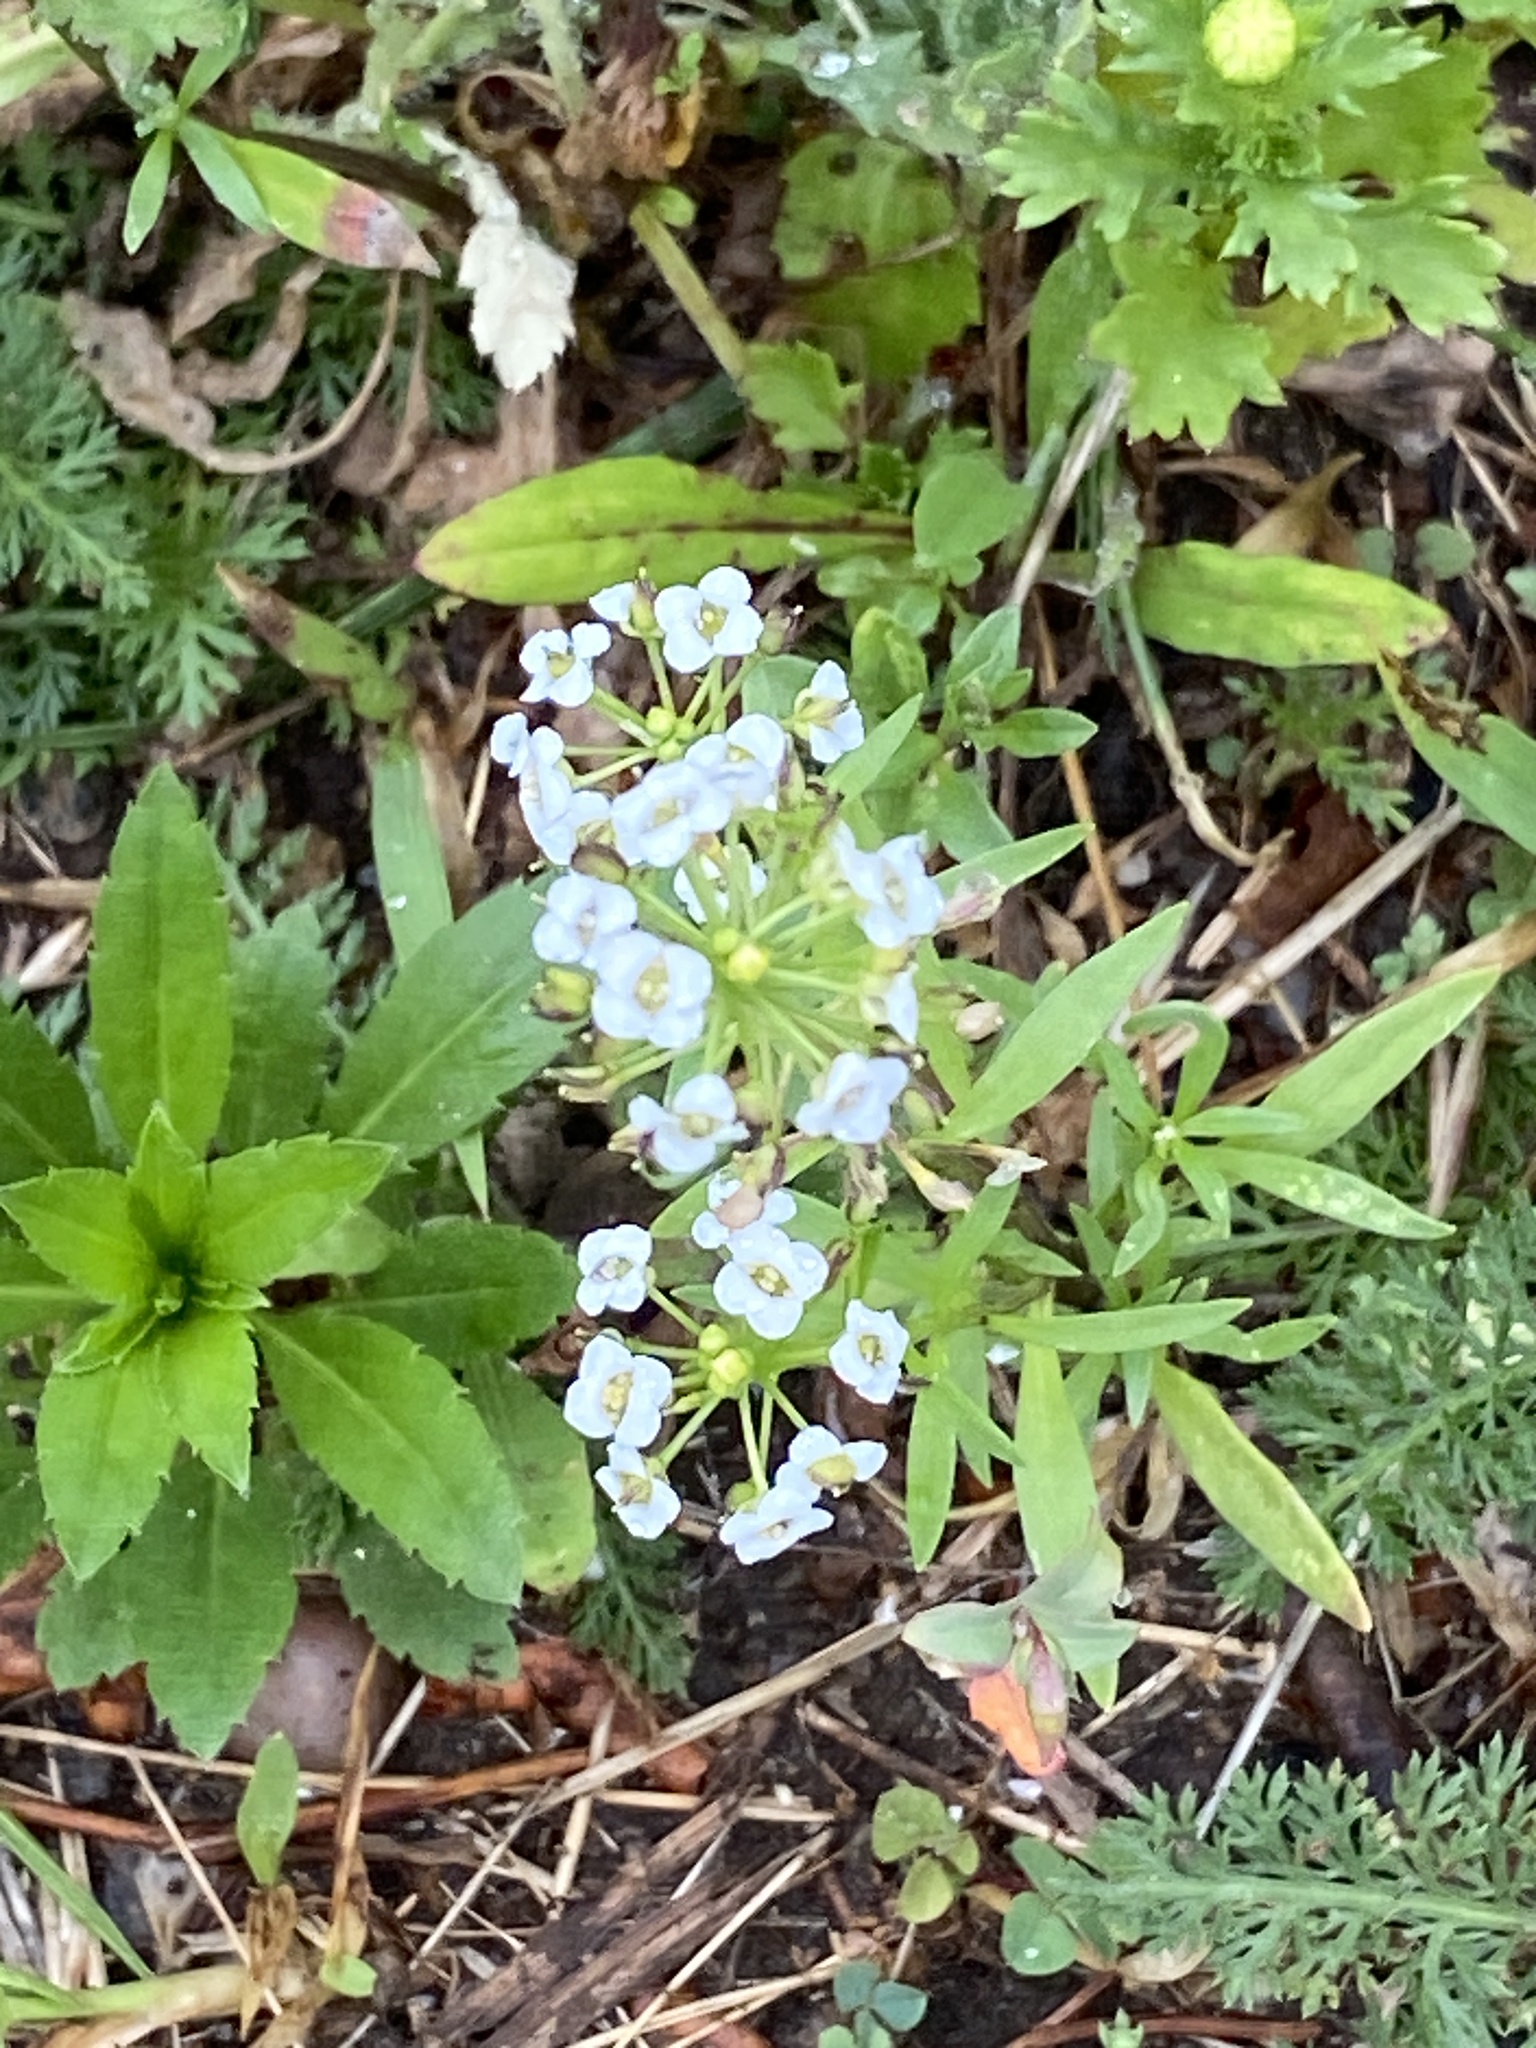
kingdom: Plantae
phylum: Tracheophyta
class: Magnoliopsida
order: Brassicales
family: Brassicaceae
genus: Lobularia
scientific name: Lobularia maritima
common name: Sweet alison
